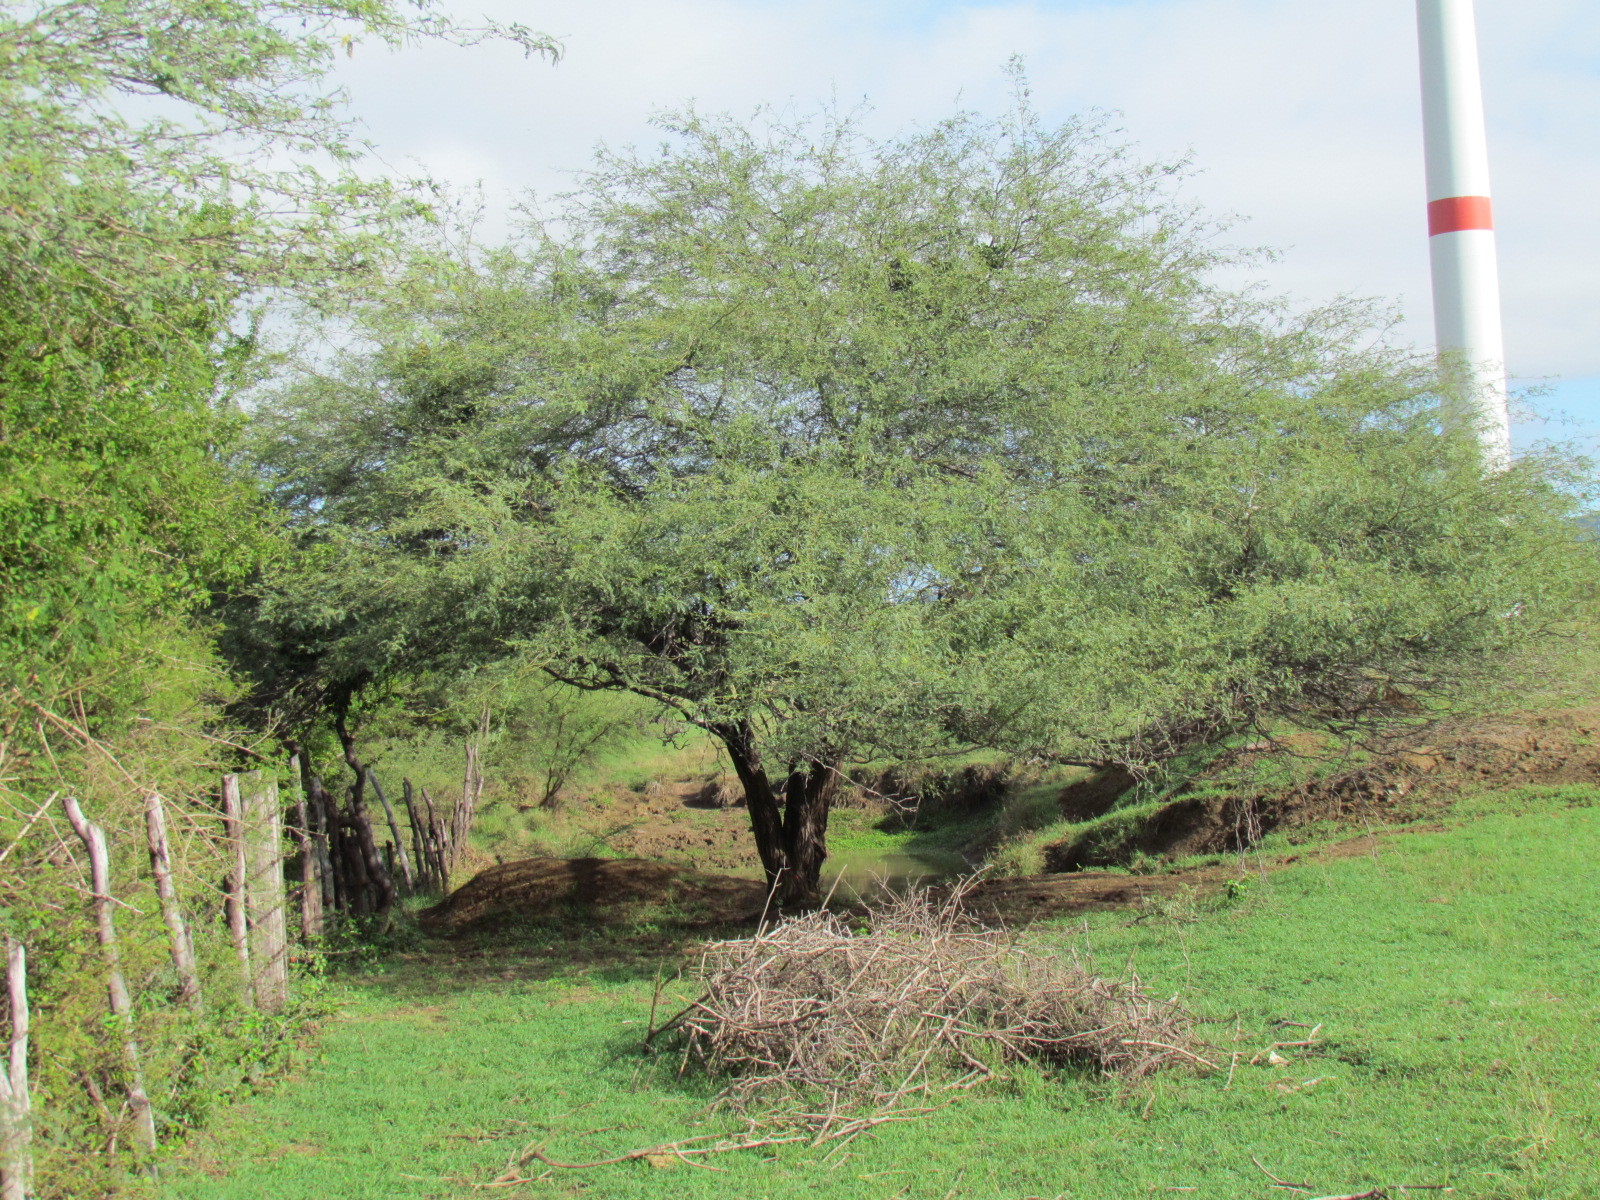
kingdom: Plantae
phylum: Tracheophyta
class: Magnoliopsida
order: Fabales
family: Fabaceae
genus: Prosopis
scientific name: Prosopis laevigata
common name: Smooth mesquite
